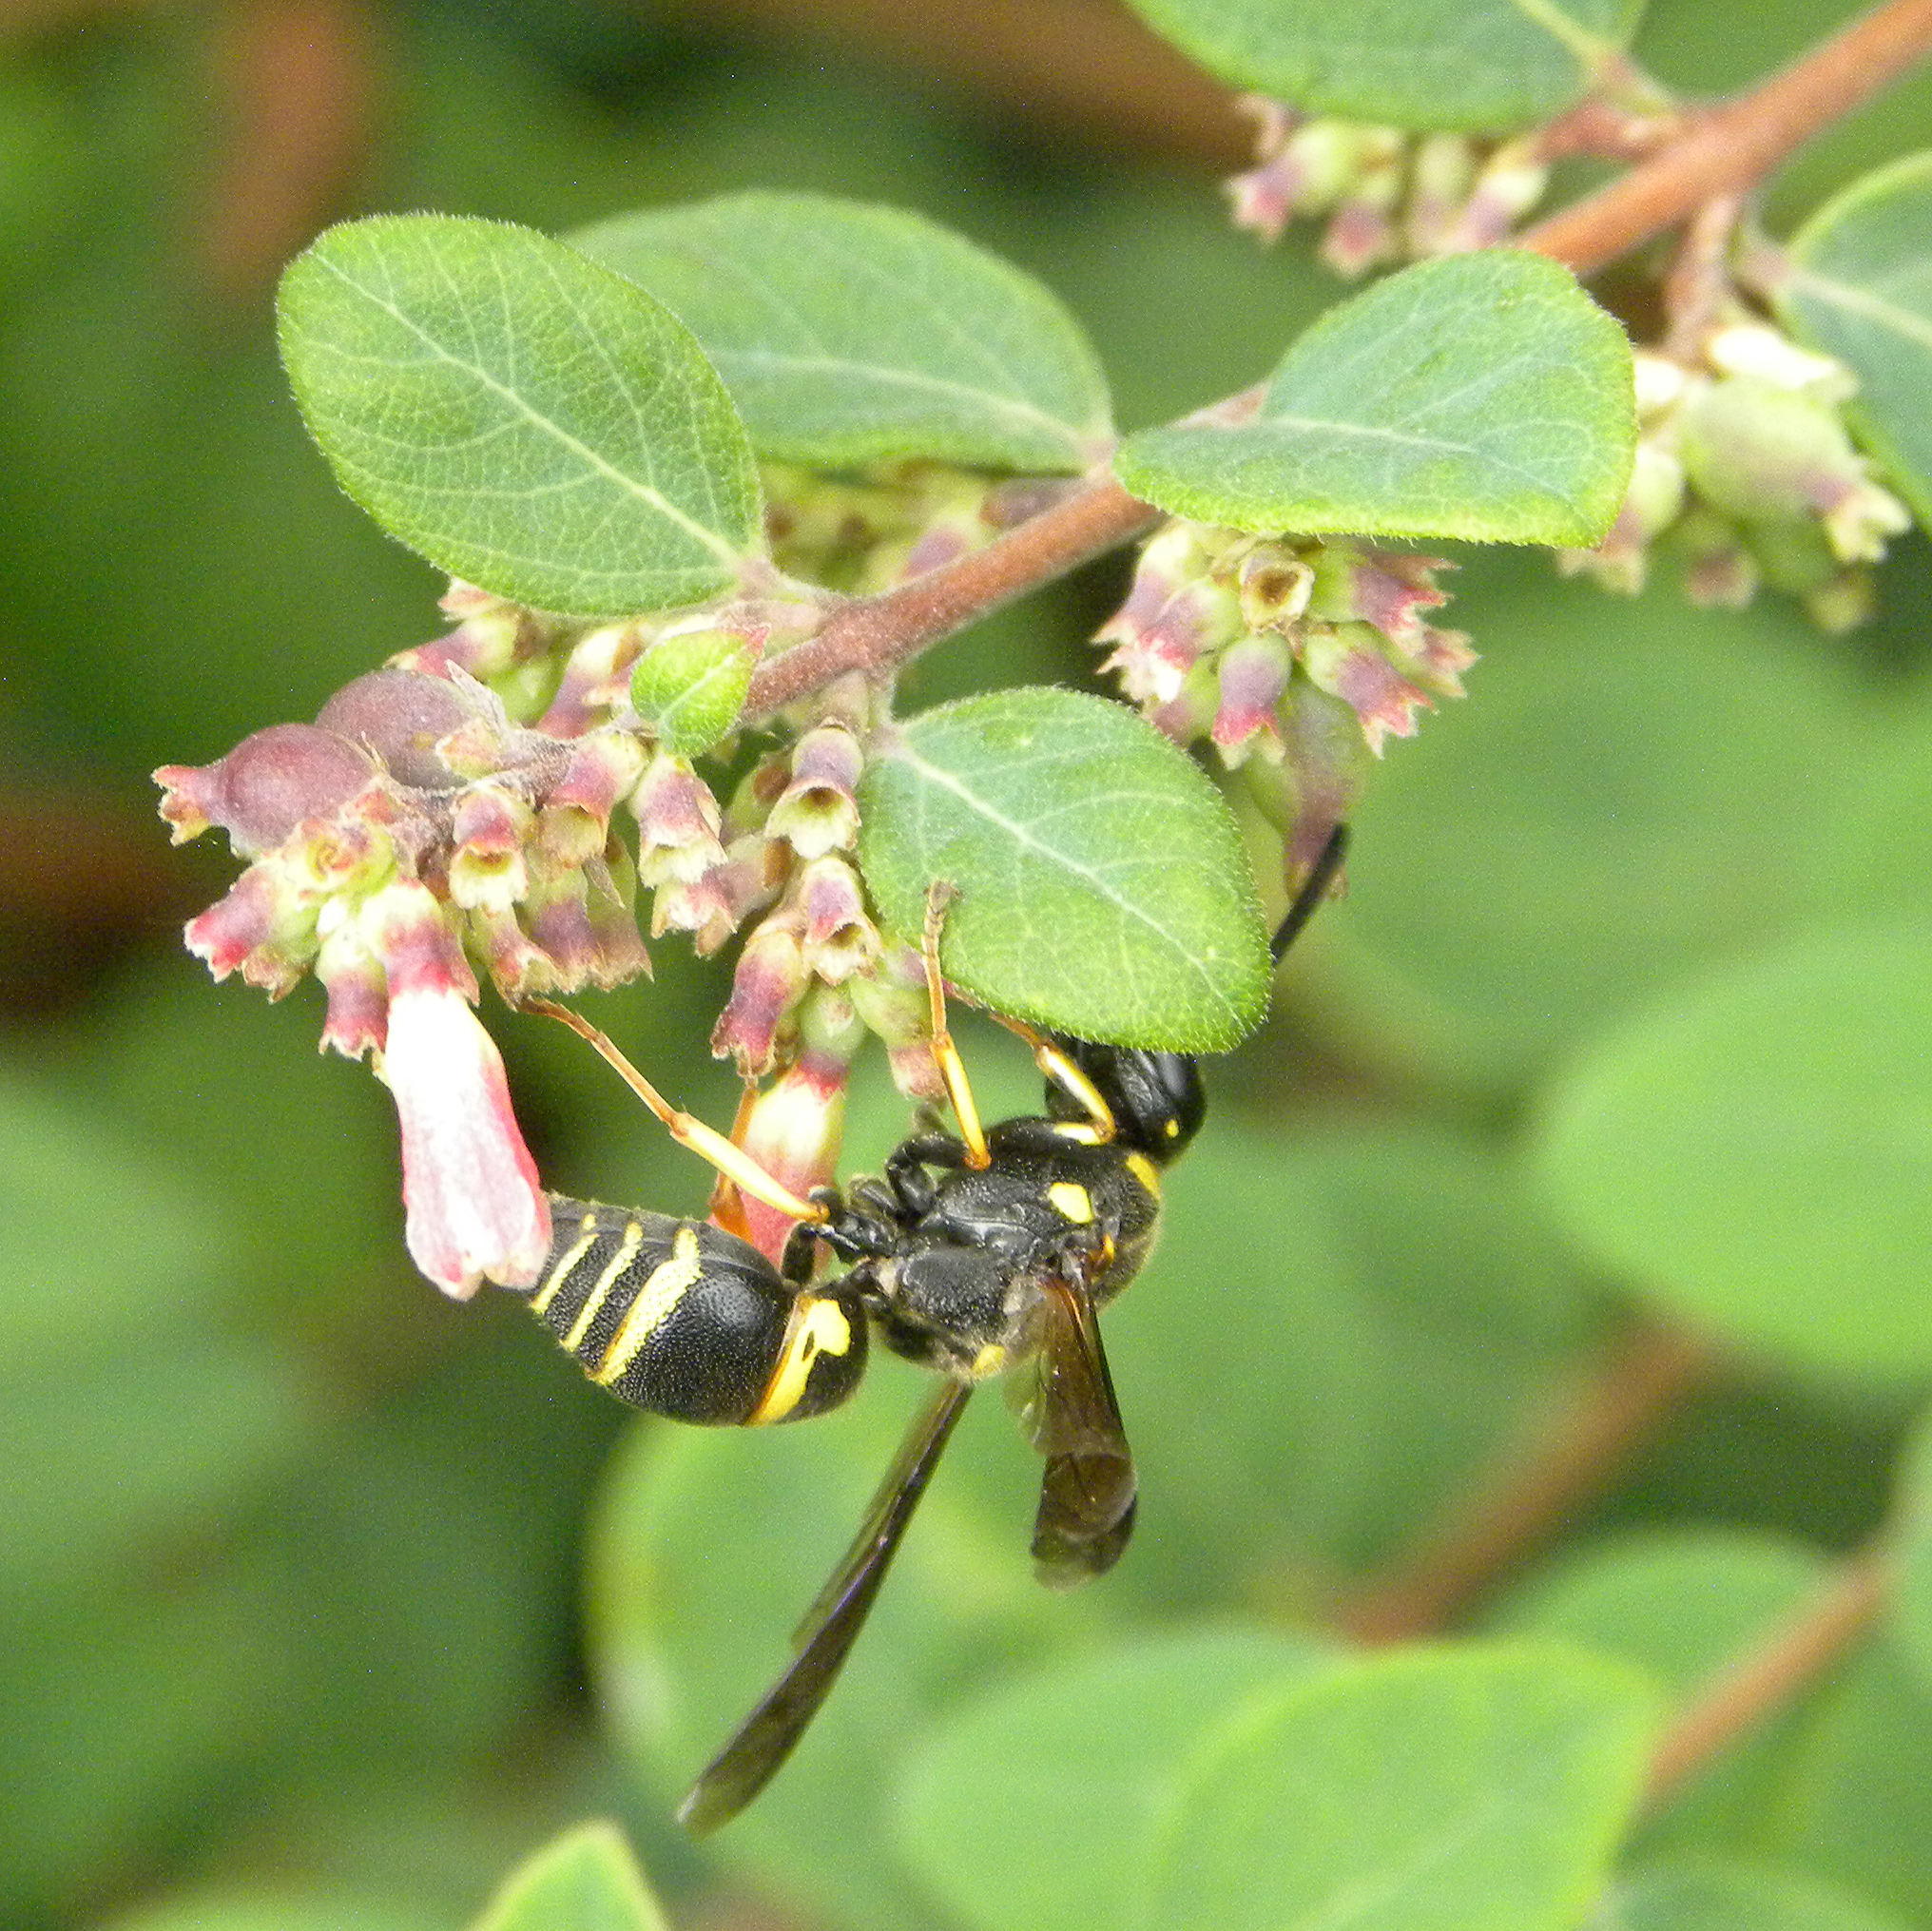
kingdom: Animalia
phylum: Arthropoda
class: Insecta
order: Hymenoptera
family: Eumenidae
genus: Euodynerus
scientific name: Euodynerus foraminatus
